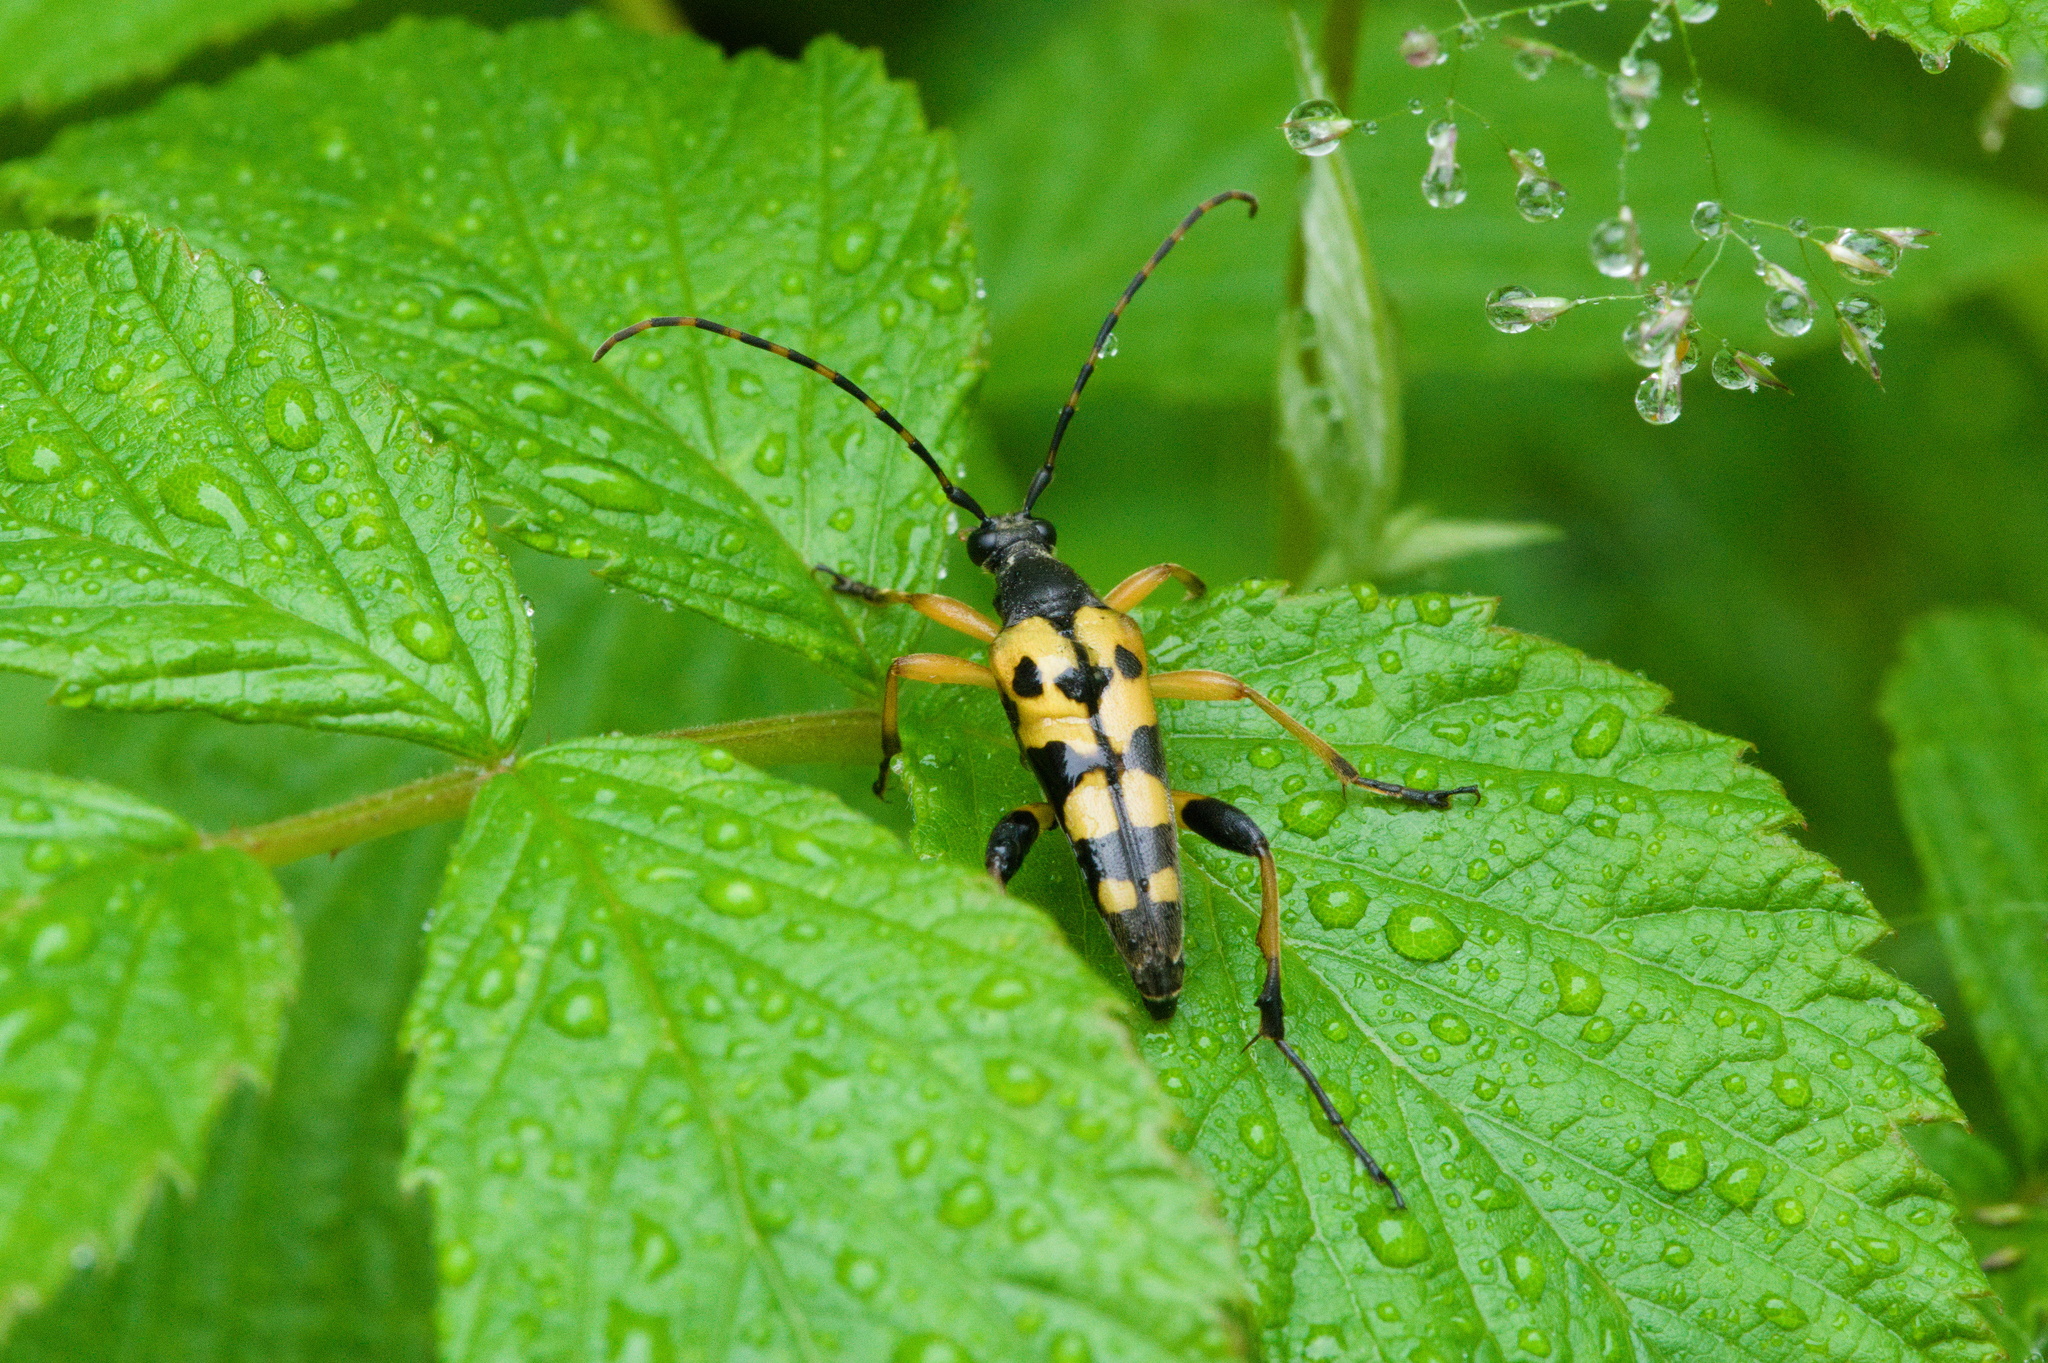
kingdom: Animalia
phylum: Arthropoda
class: Insecta
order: Coleoptera
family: Cerambycidae
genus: Rutpela
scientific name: Rutpela maculata
